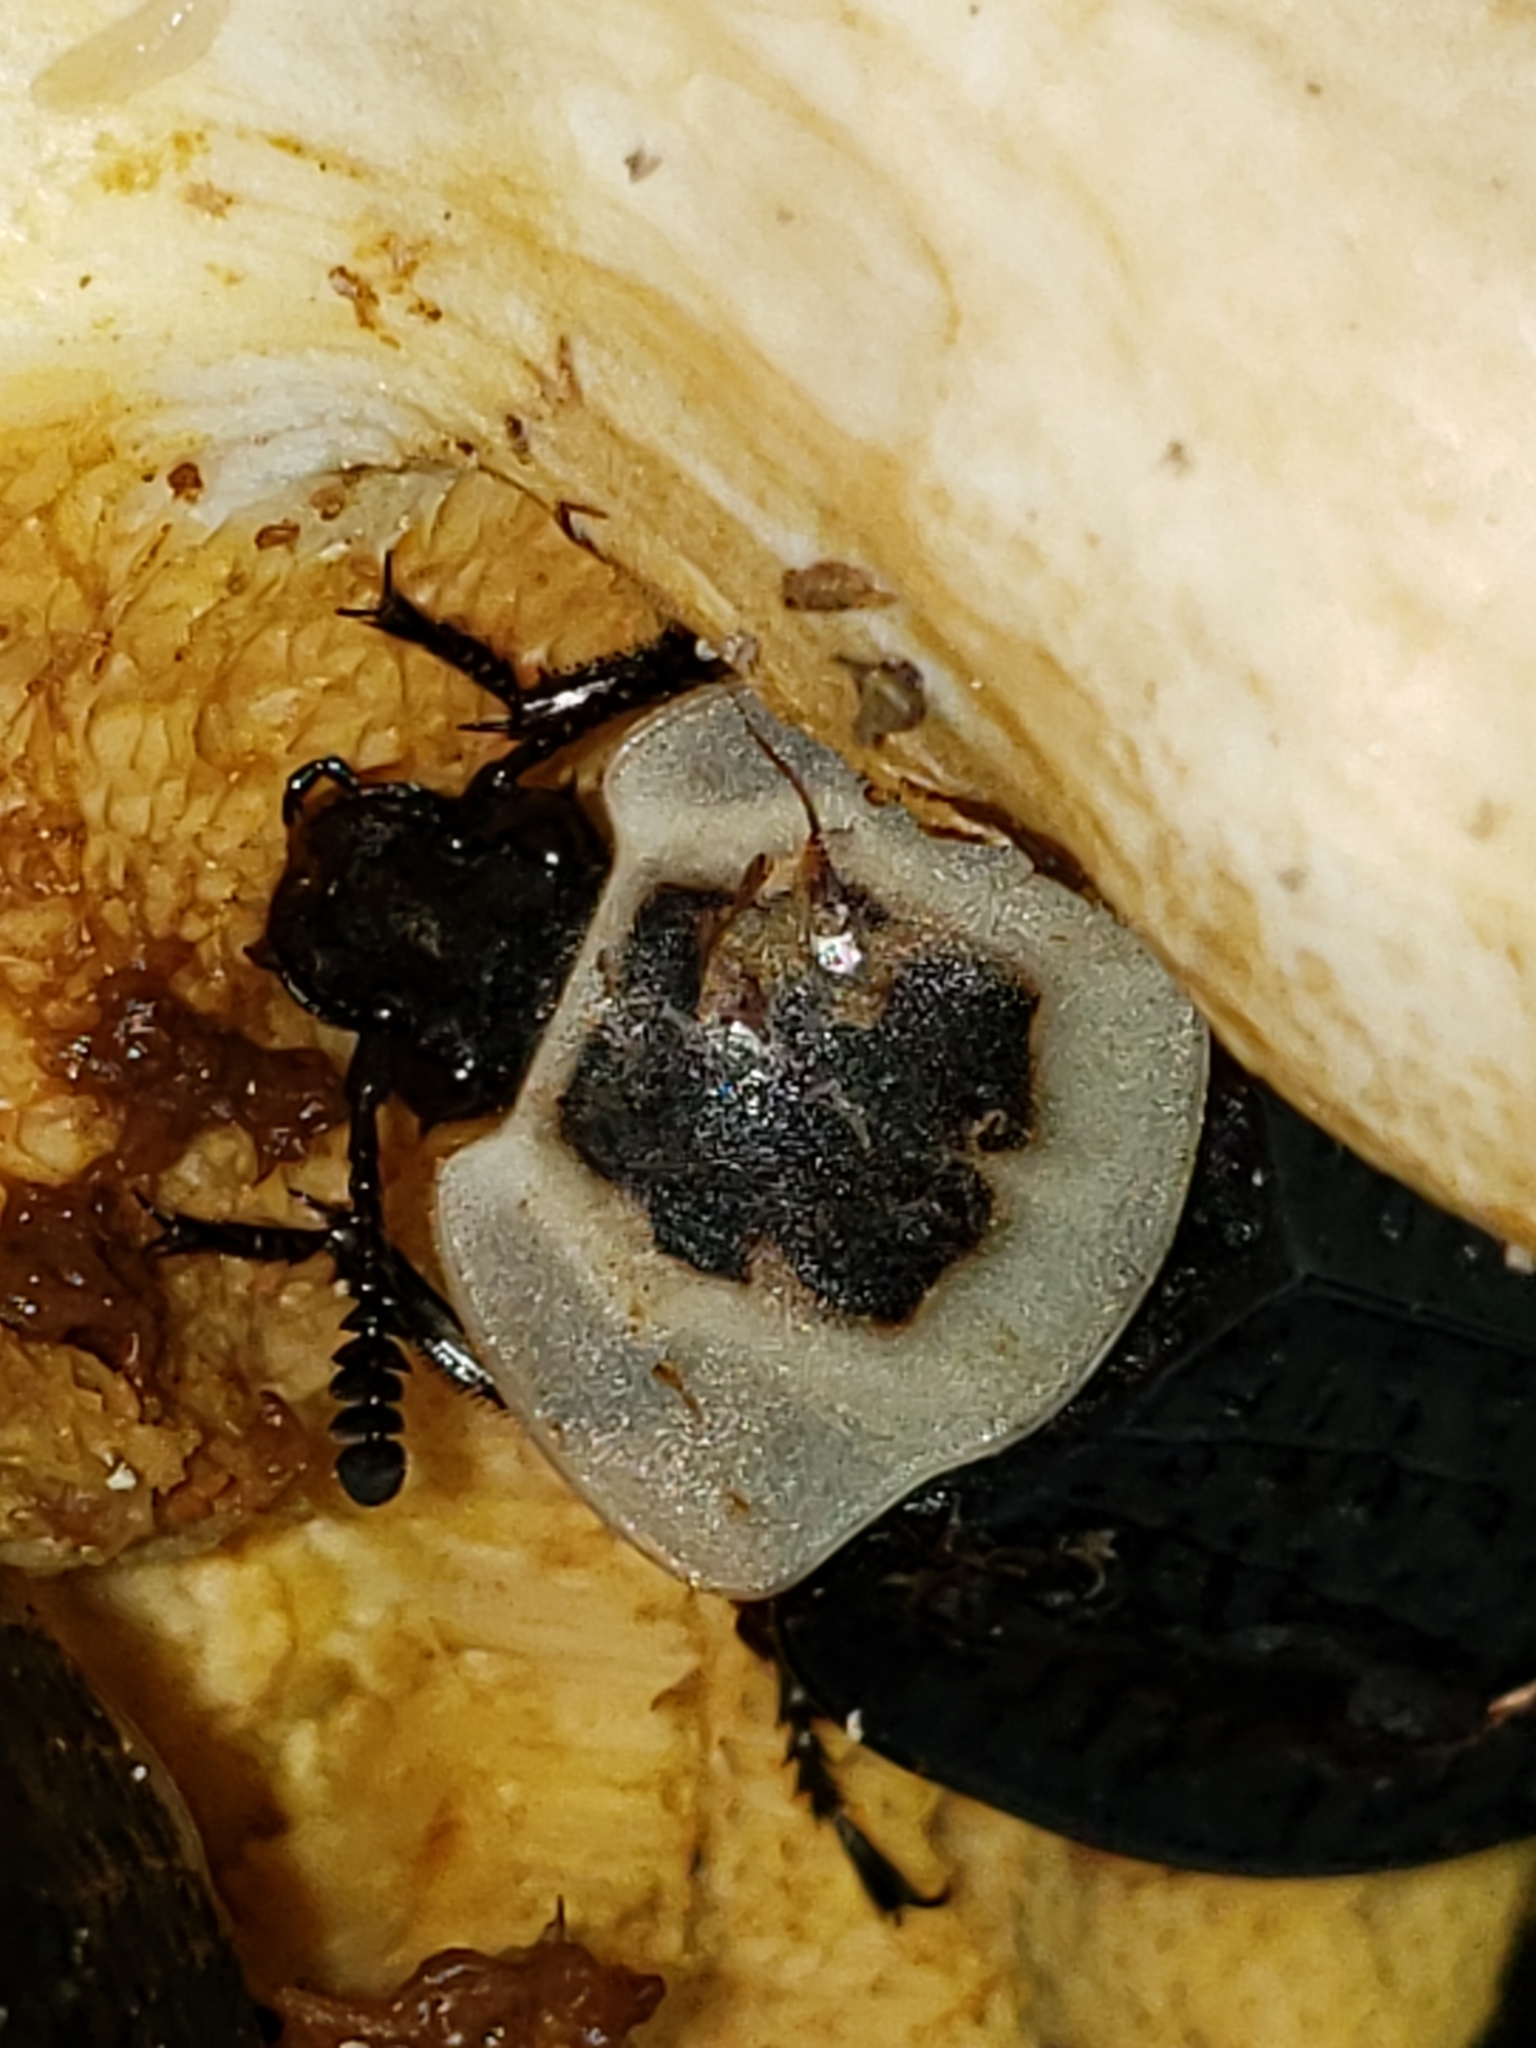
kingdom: Animalia
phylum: Arthropoda
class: Insecta
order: Coleoptera
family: Staphylinidae
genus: Necrophila
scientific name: Necrophila americana
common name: American carrion beetle
